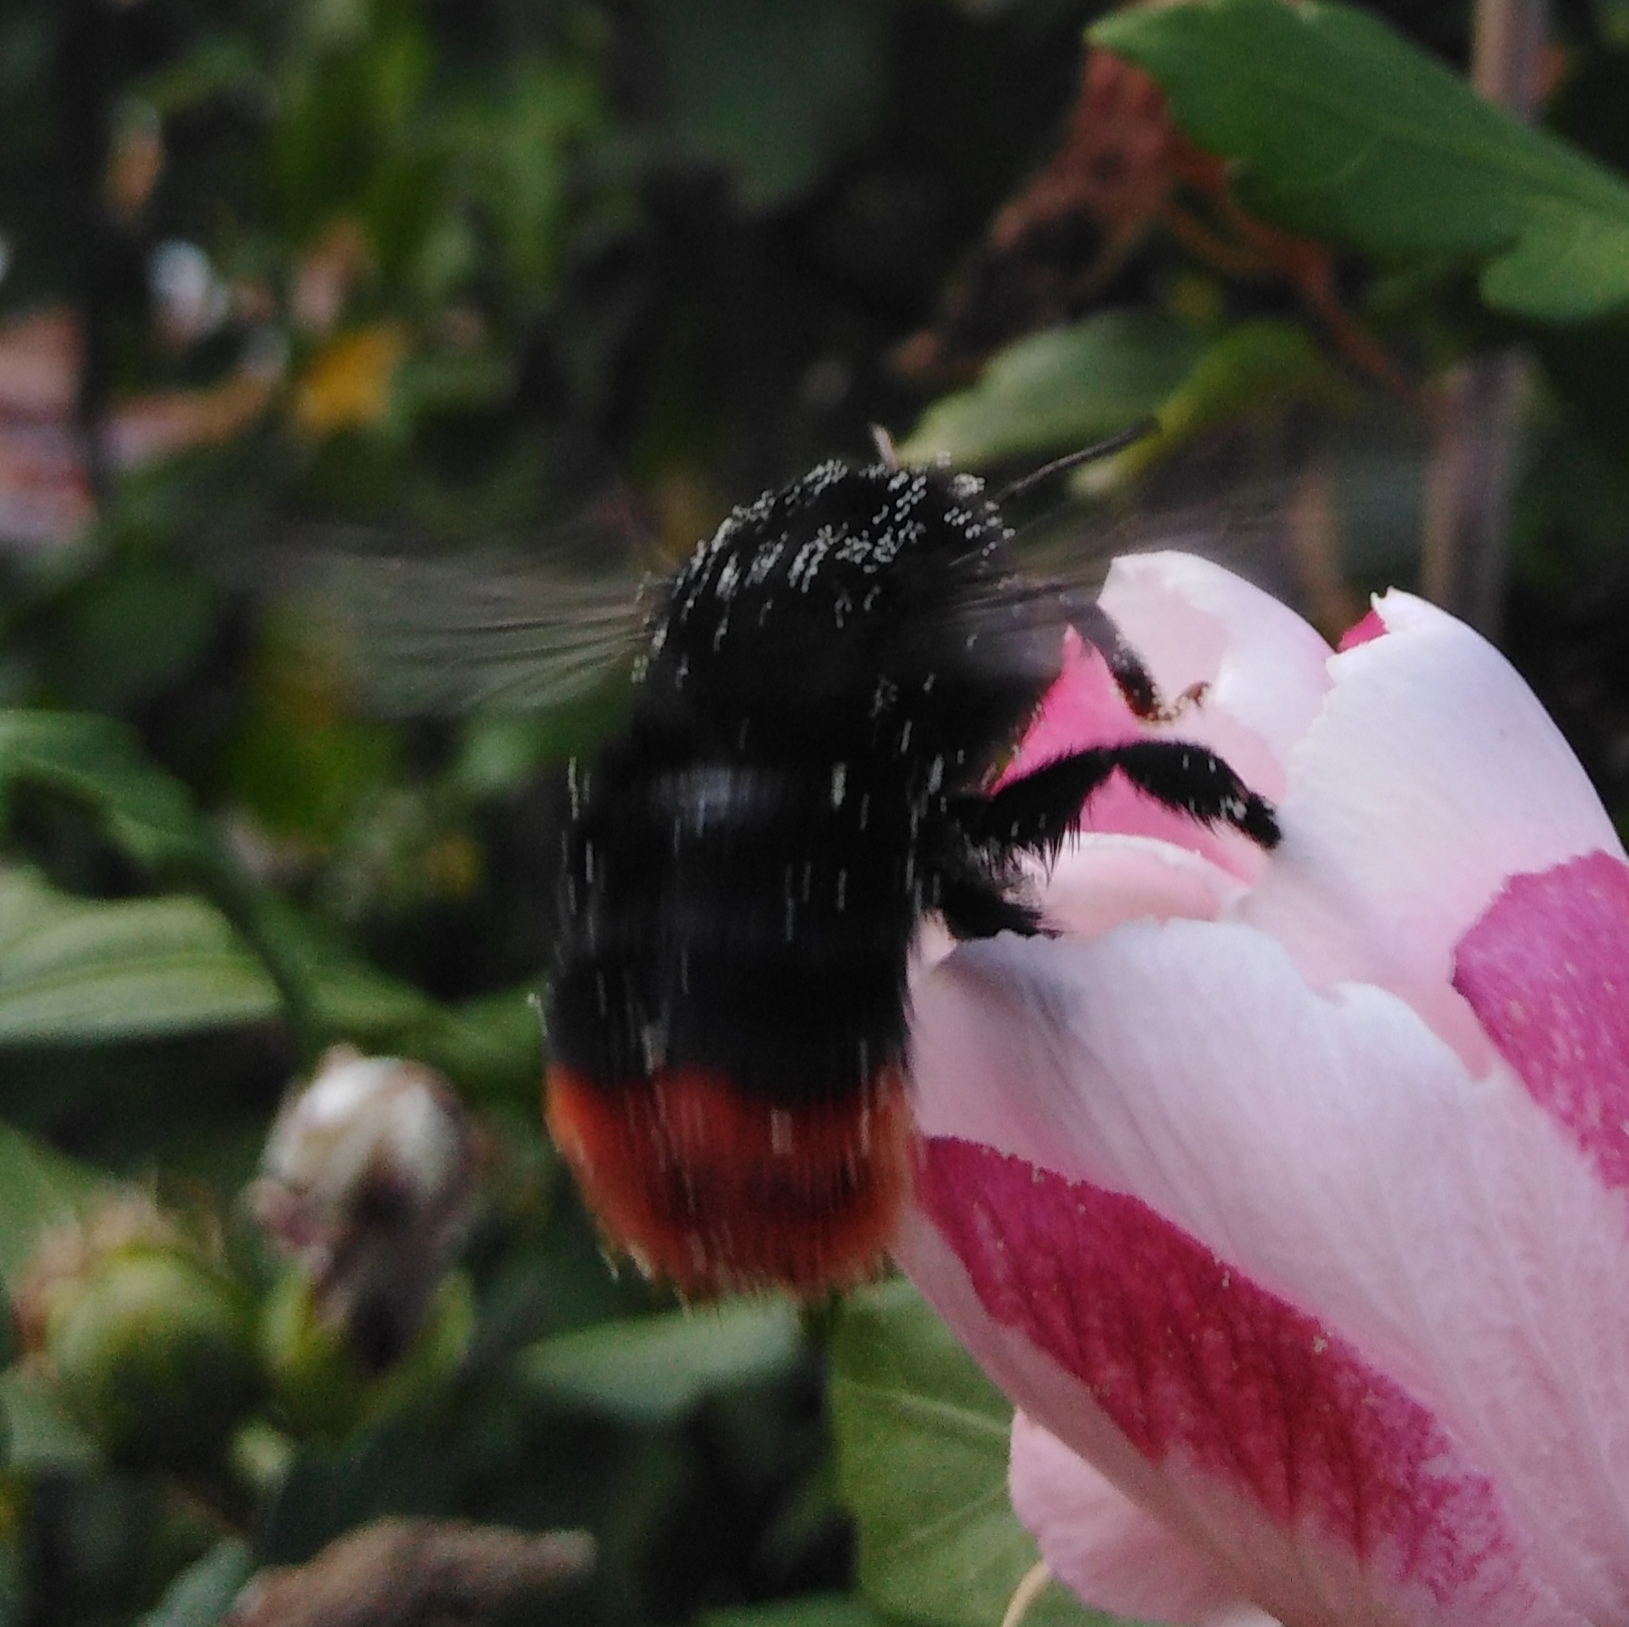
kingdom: Animalia
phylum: Arthropoda
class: Insecta
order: Hymenoptera
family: Apidae
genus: Bombus
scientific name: Bombus lapidarius
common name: Large red-tailed humble-bee
